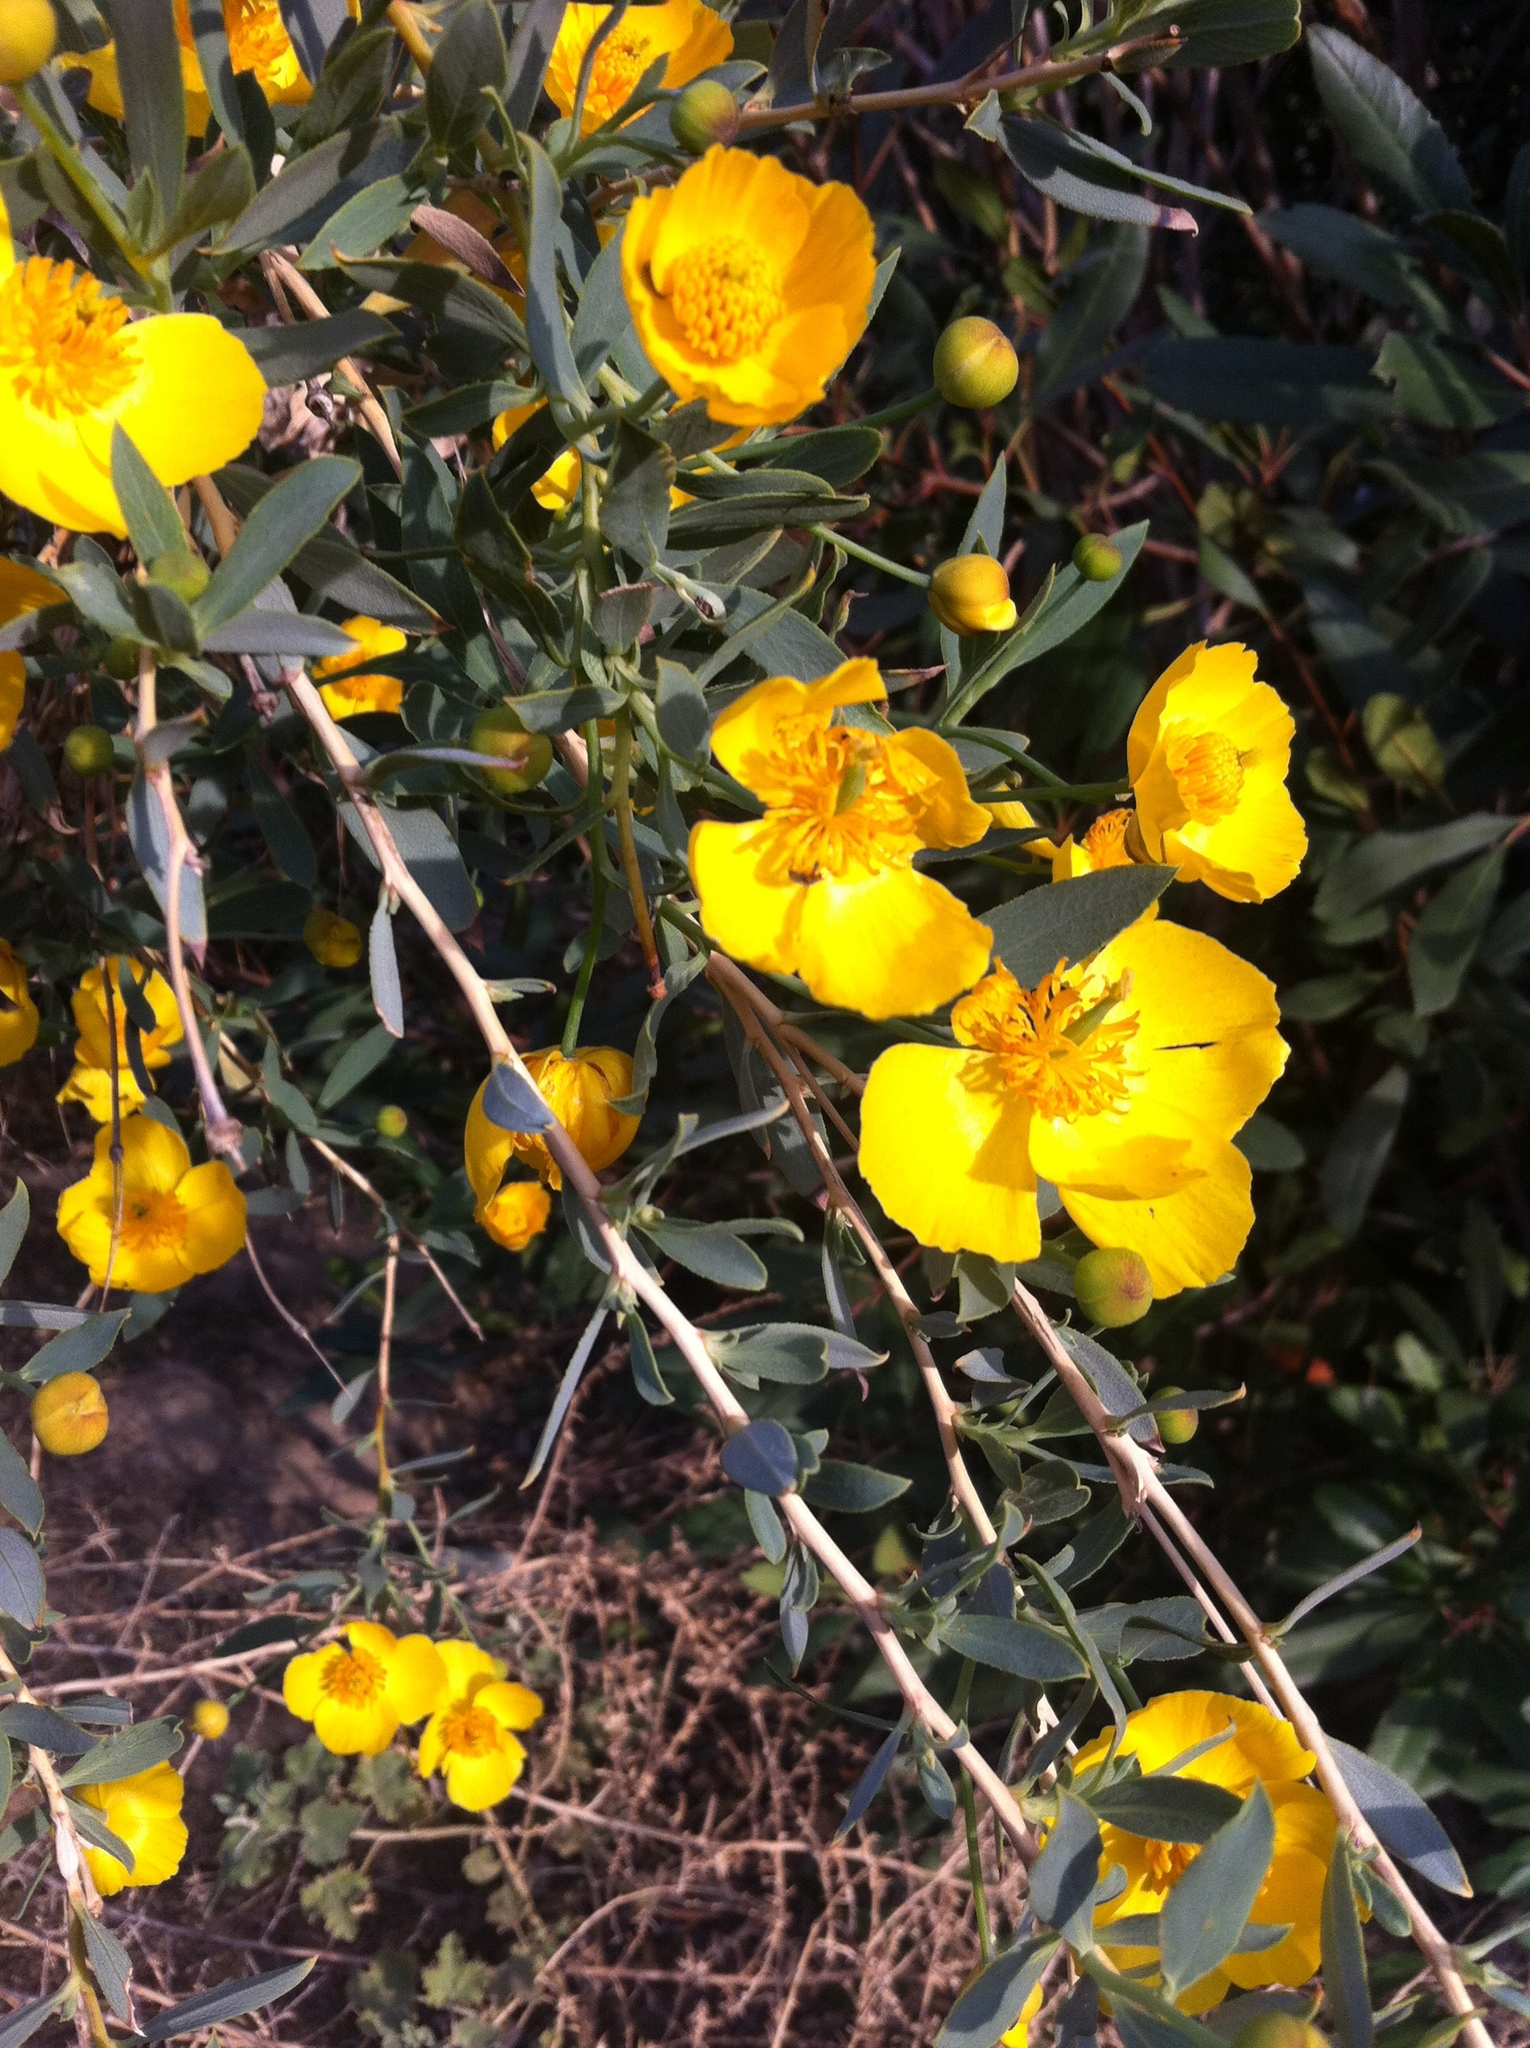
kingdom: Plantae
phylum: Tracheophyta
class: Magnoliopsida
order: Ranunculales
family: Papaveraceae
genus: Dendromecon
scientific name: Dendromecon rigida
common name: Tree poppy
